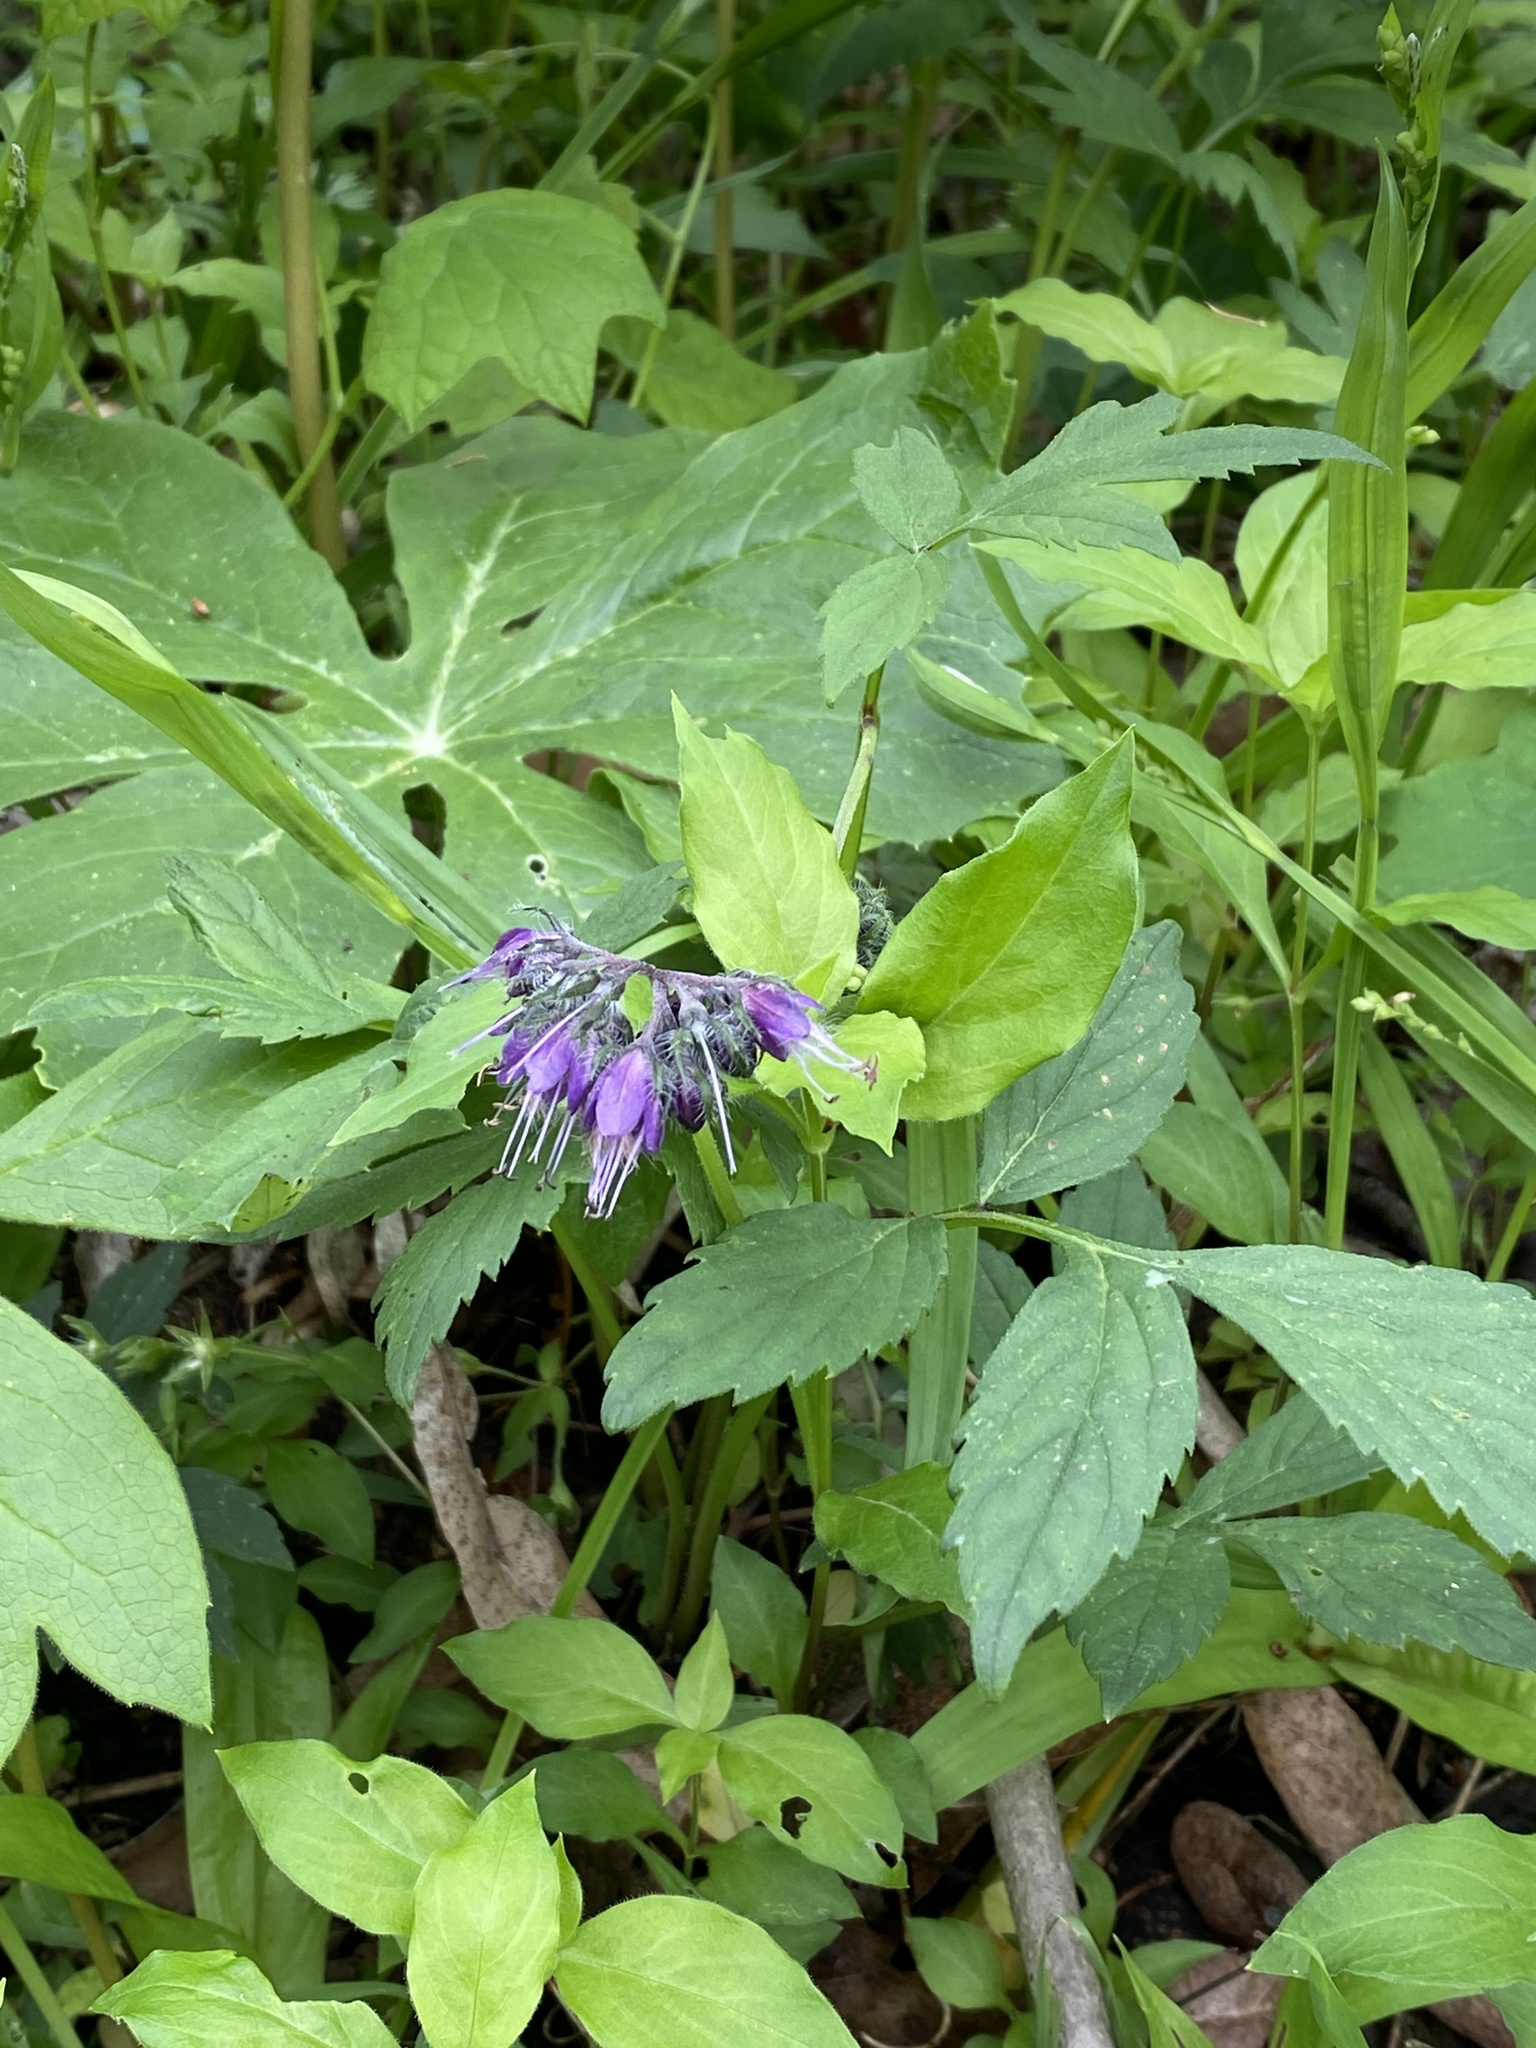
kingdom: Plantae
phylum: Tracheophyta
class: Magnoliopsida
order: Boraginales
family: Hydrophyllaceae
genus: Hydrophyllum
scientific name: Hydrophyllum virginianum
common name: Virginia waterleaf
